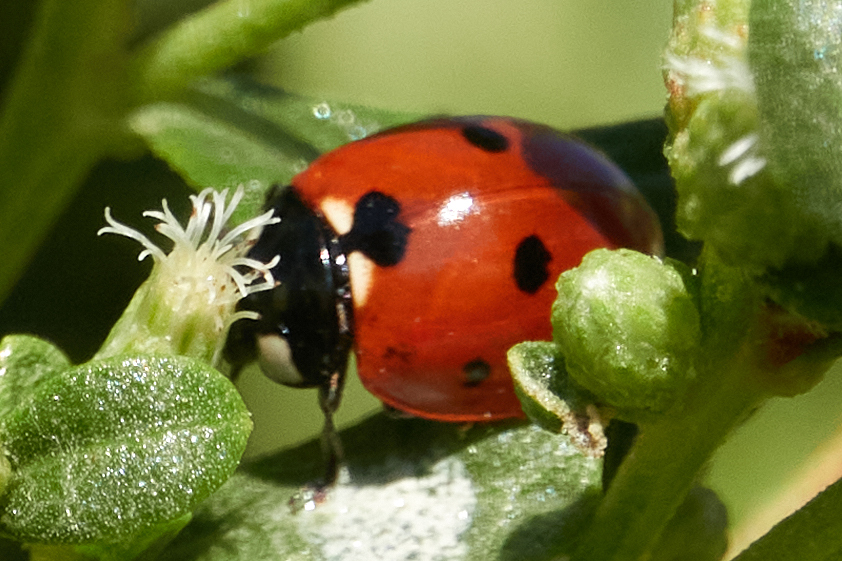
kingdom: Animalia
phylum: Arthropoda
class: Insecta
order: Coleoptera
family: Coccinellidae
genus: Coccinella
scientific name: Coccinella septempunctata
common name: Sevenspotted lady beetle
